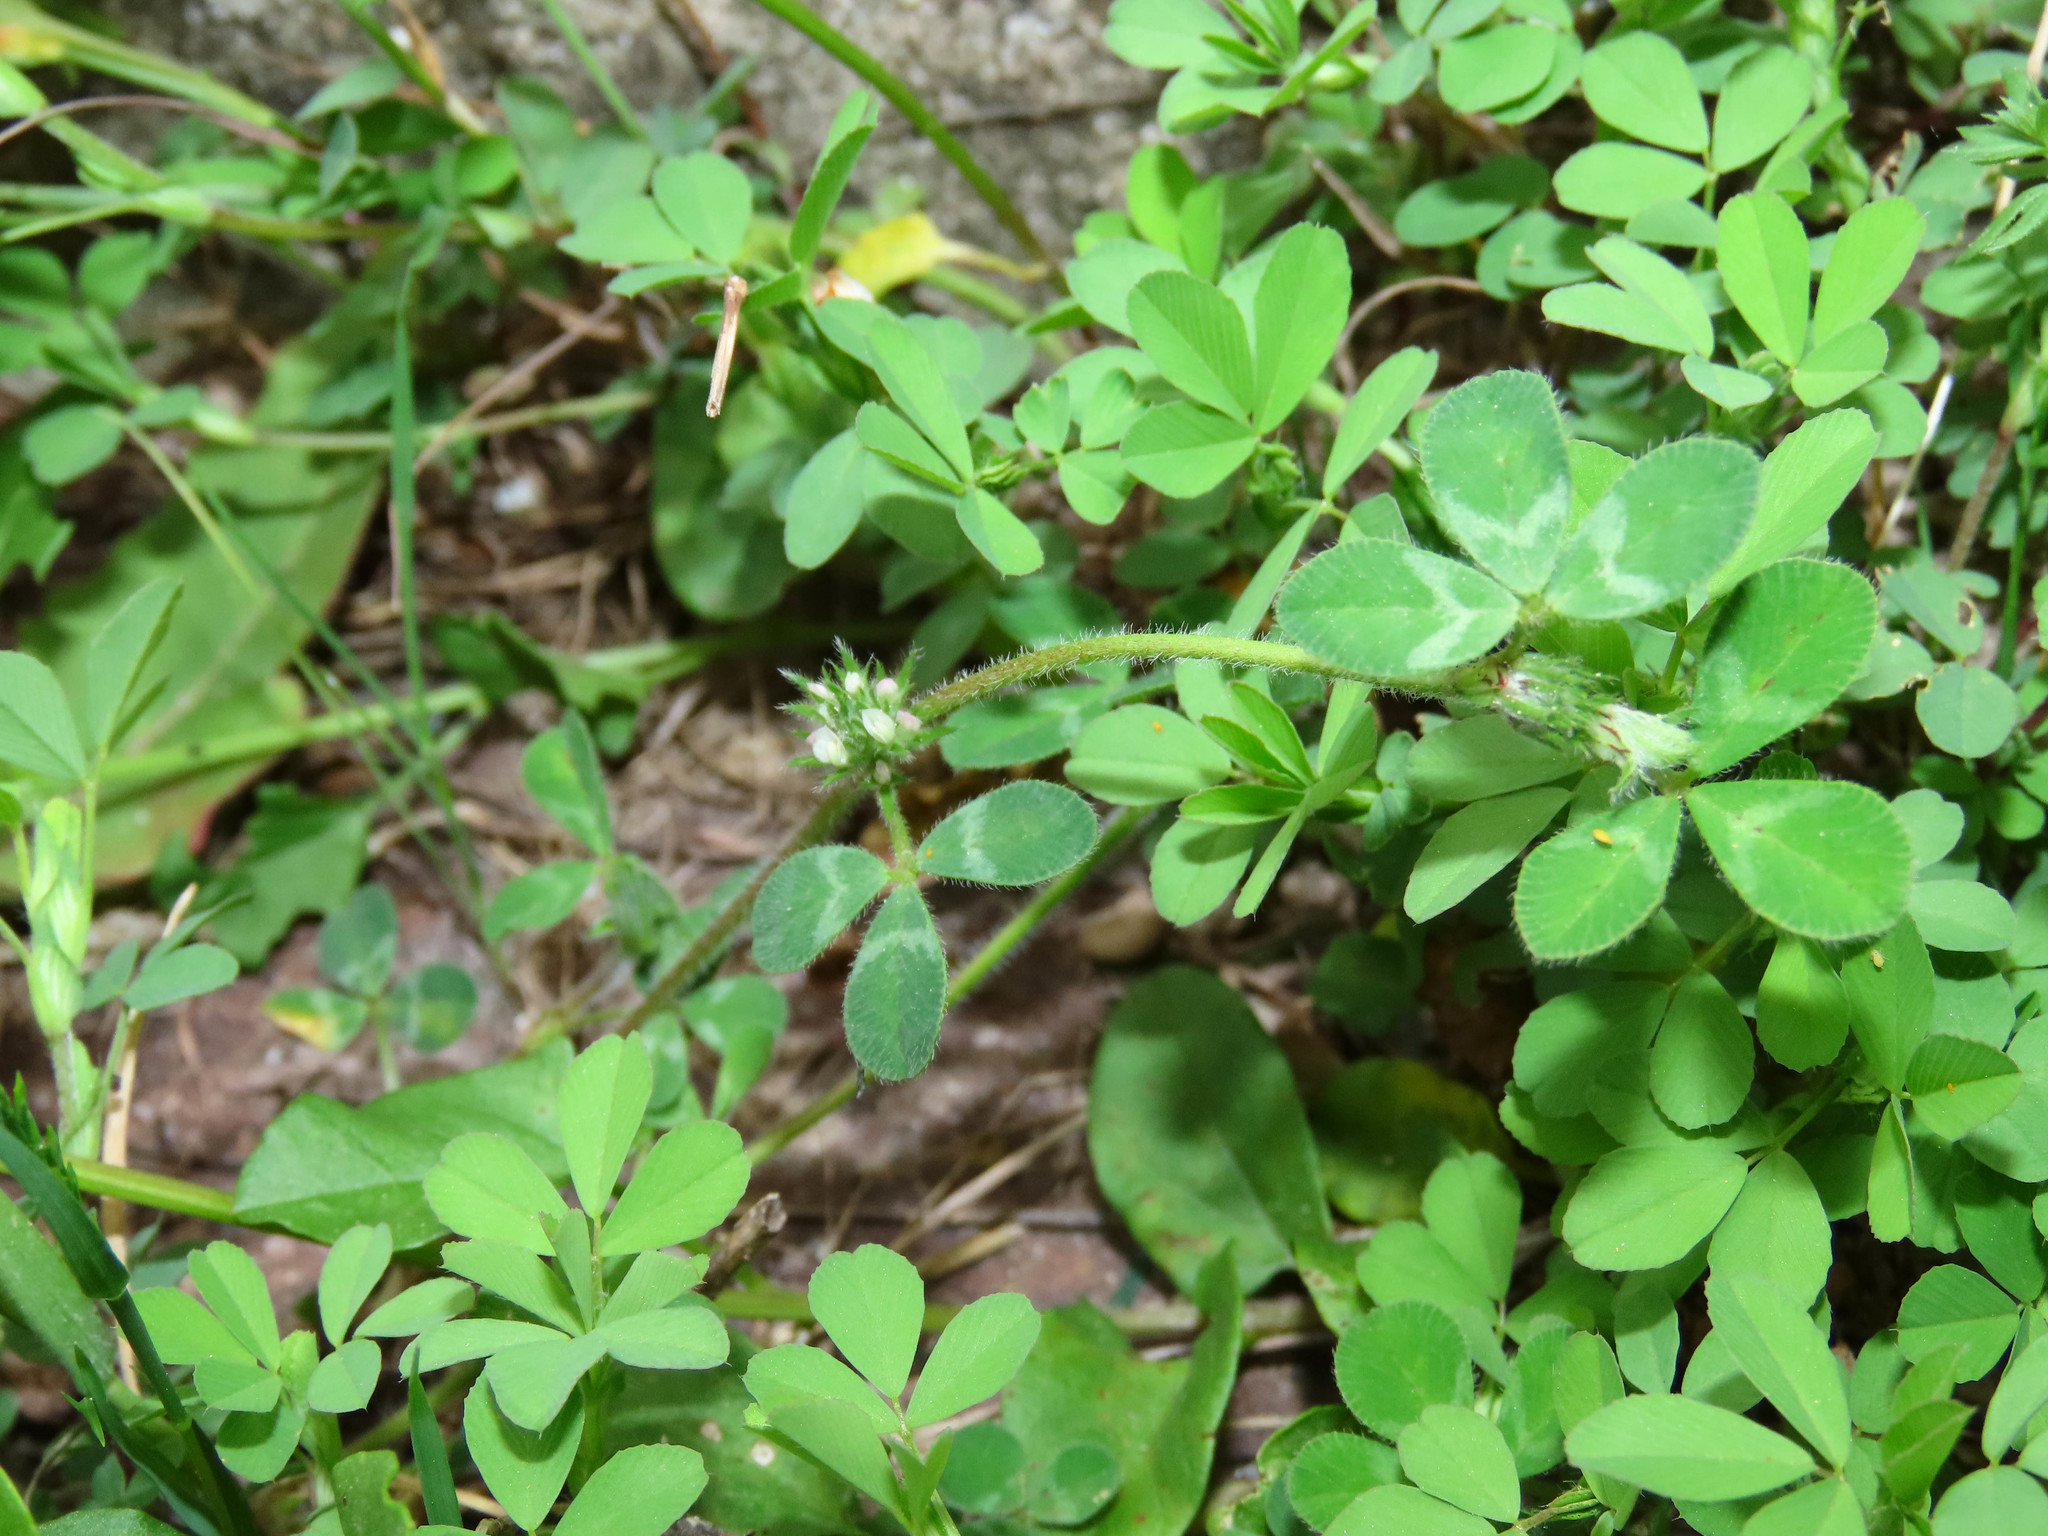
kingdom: Plantae
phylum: Tracheophyta
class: Magnoliopsida
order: Fabales
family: Fabaceae
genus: Trifolium
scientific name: Trifolium scabrum
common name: Rough clover
